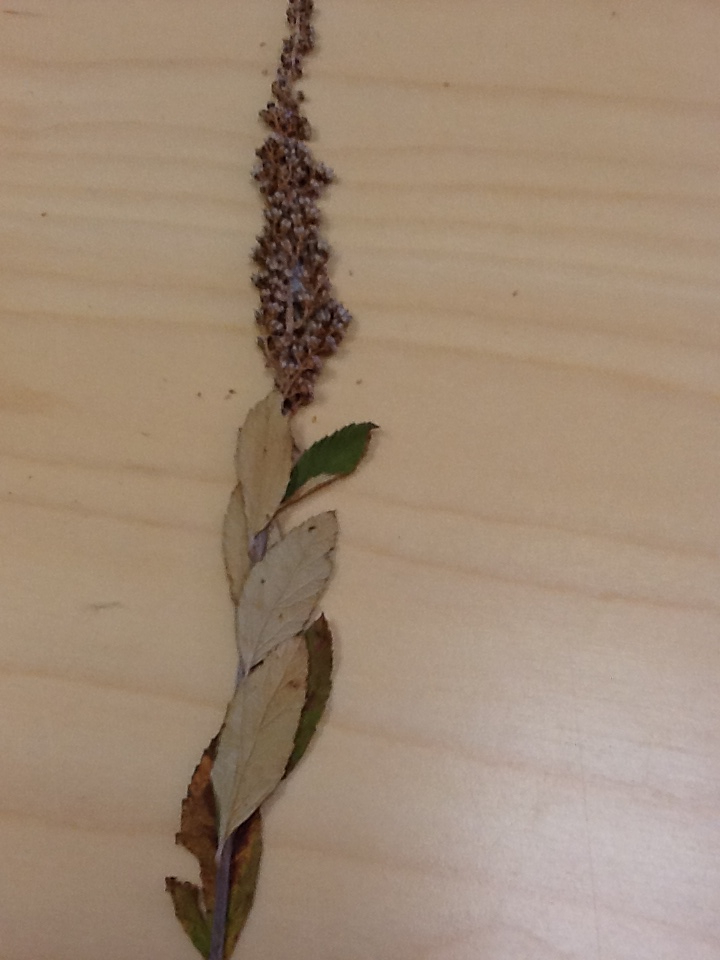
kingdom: Plantae
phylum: Tracheophyta
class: Magnoliopsida
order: Rosales
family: Rosaceae
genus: Spiraea
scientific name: Spiraea tomentosa
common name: Hardhack
